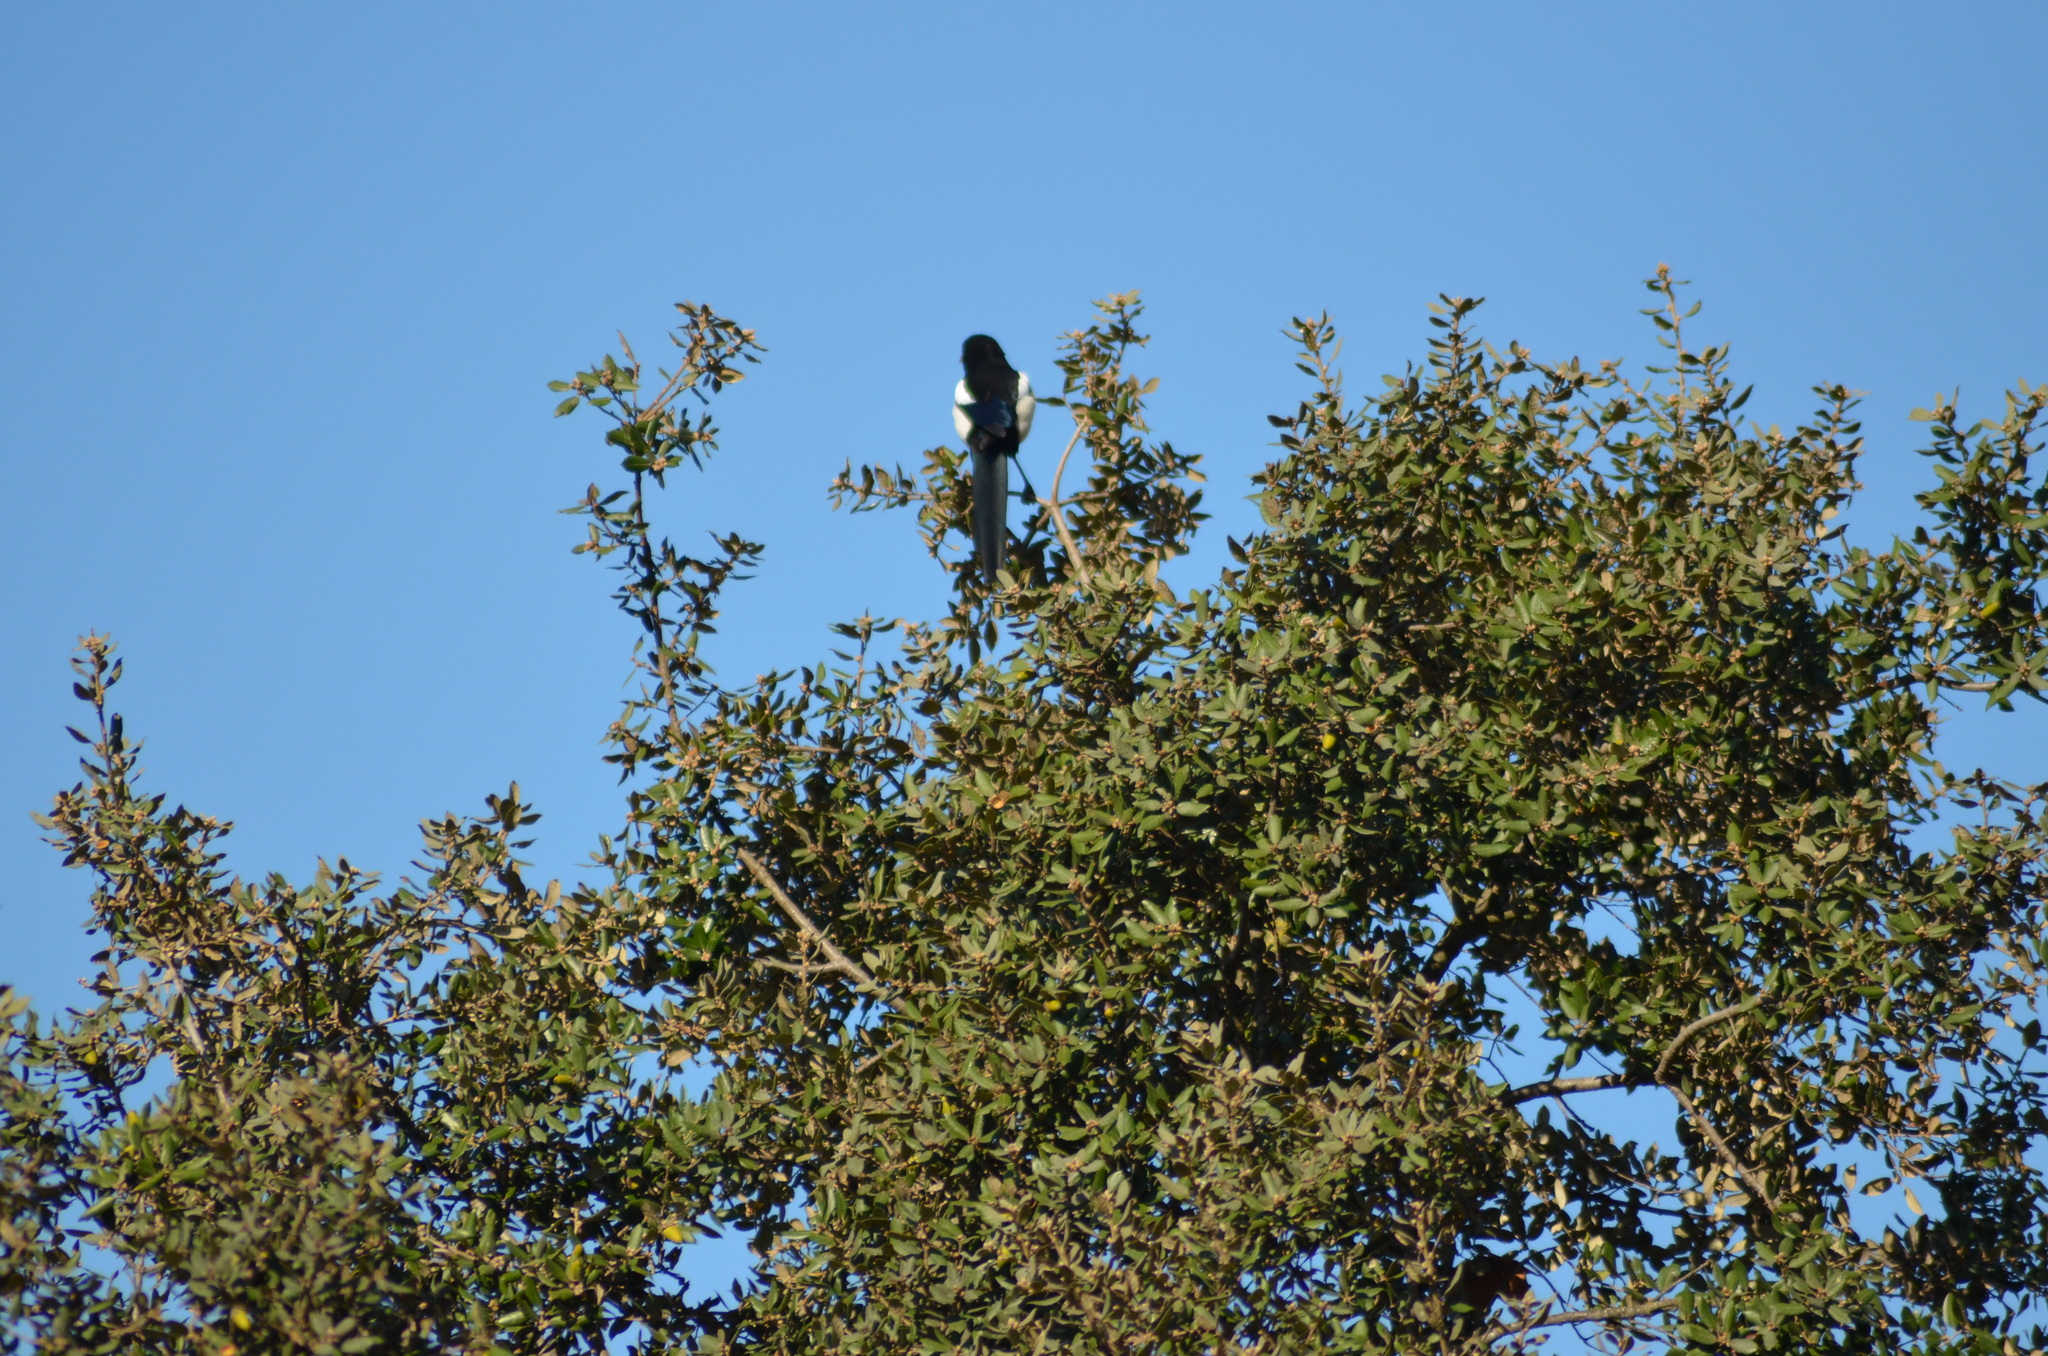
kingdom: Animalia
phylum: Chordata
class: Aves
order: Passeriformes
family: Corvidae
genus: Pica
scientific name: Pica pica
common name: Eurasian magpie
